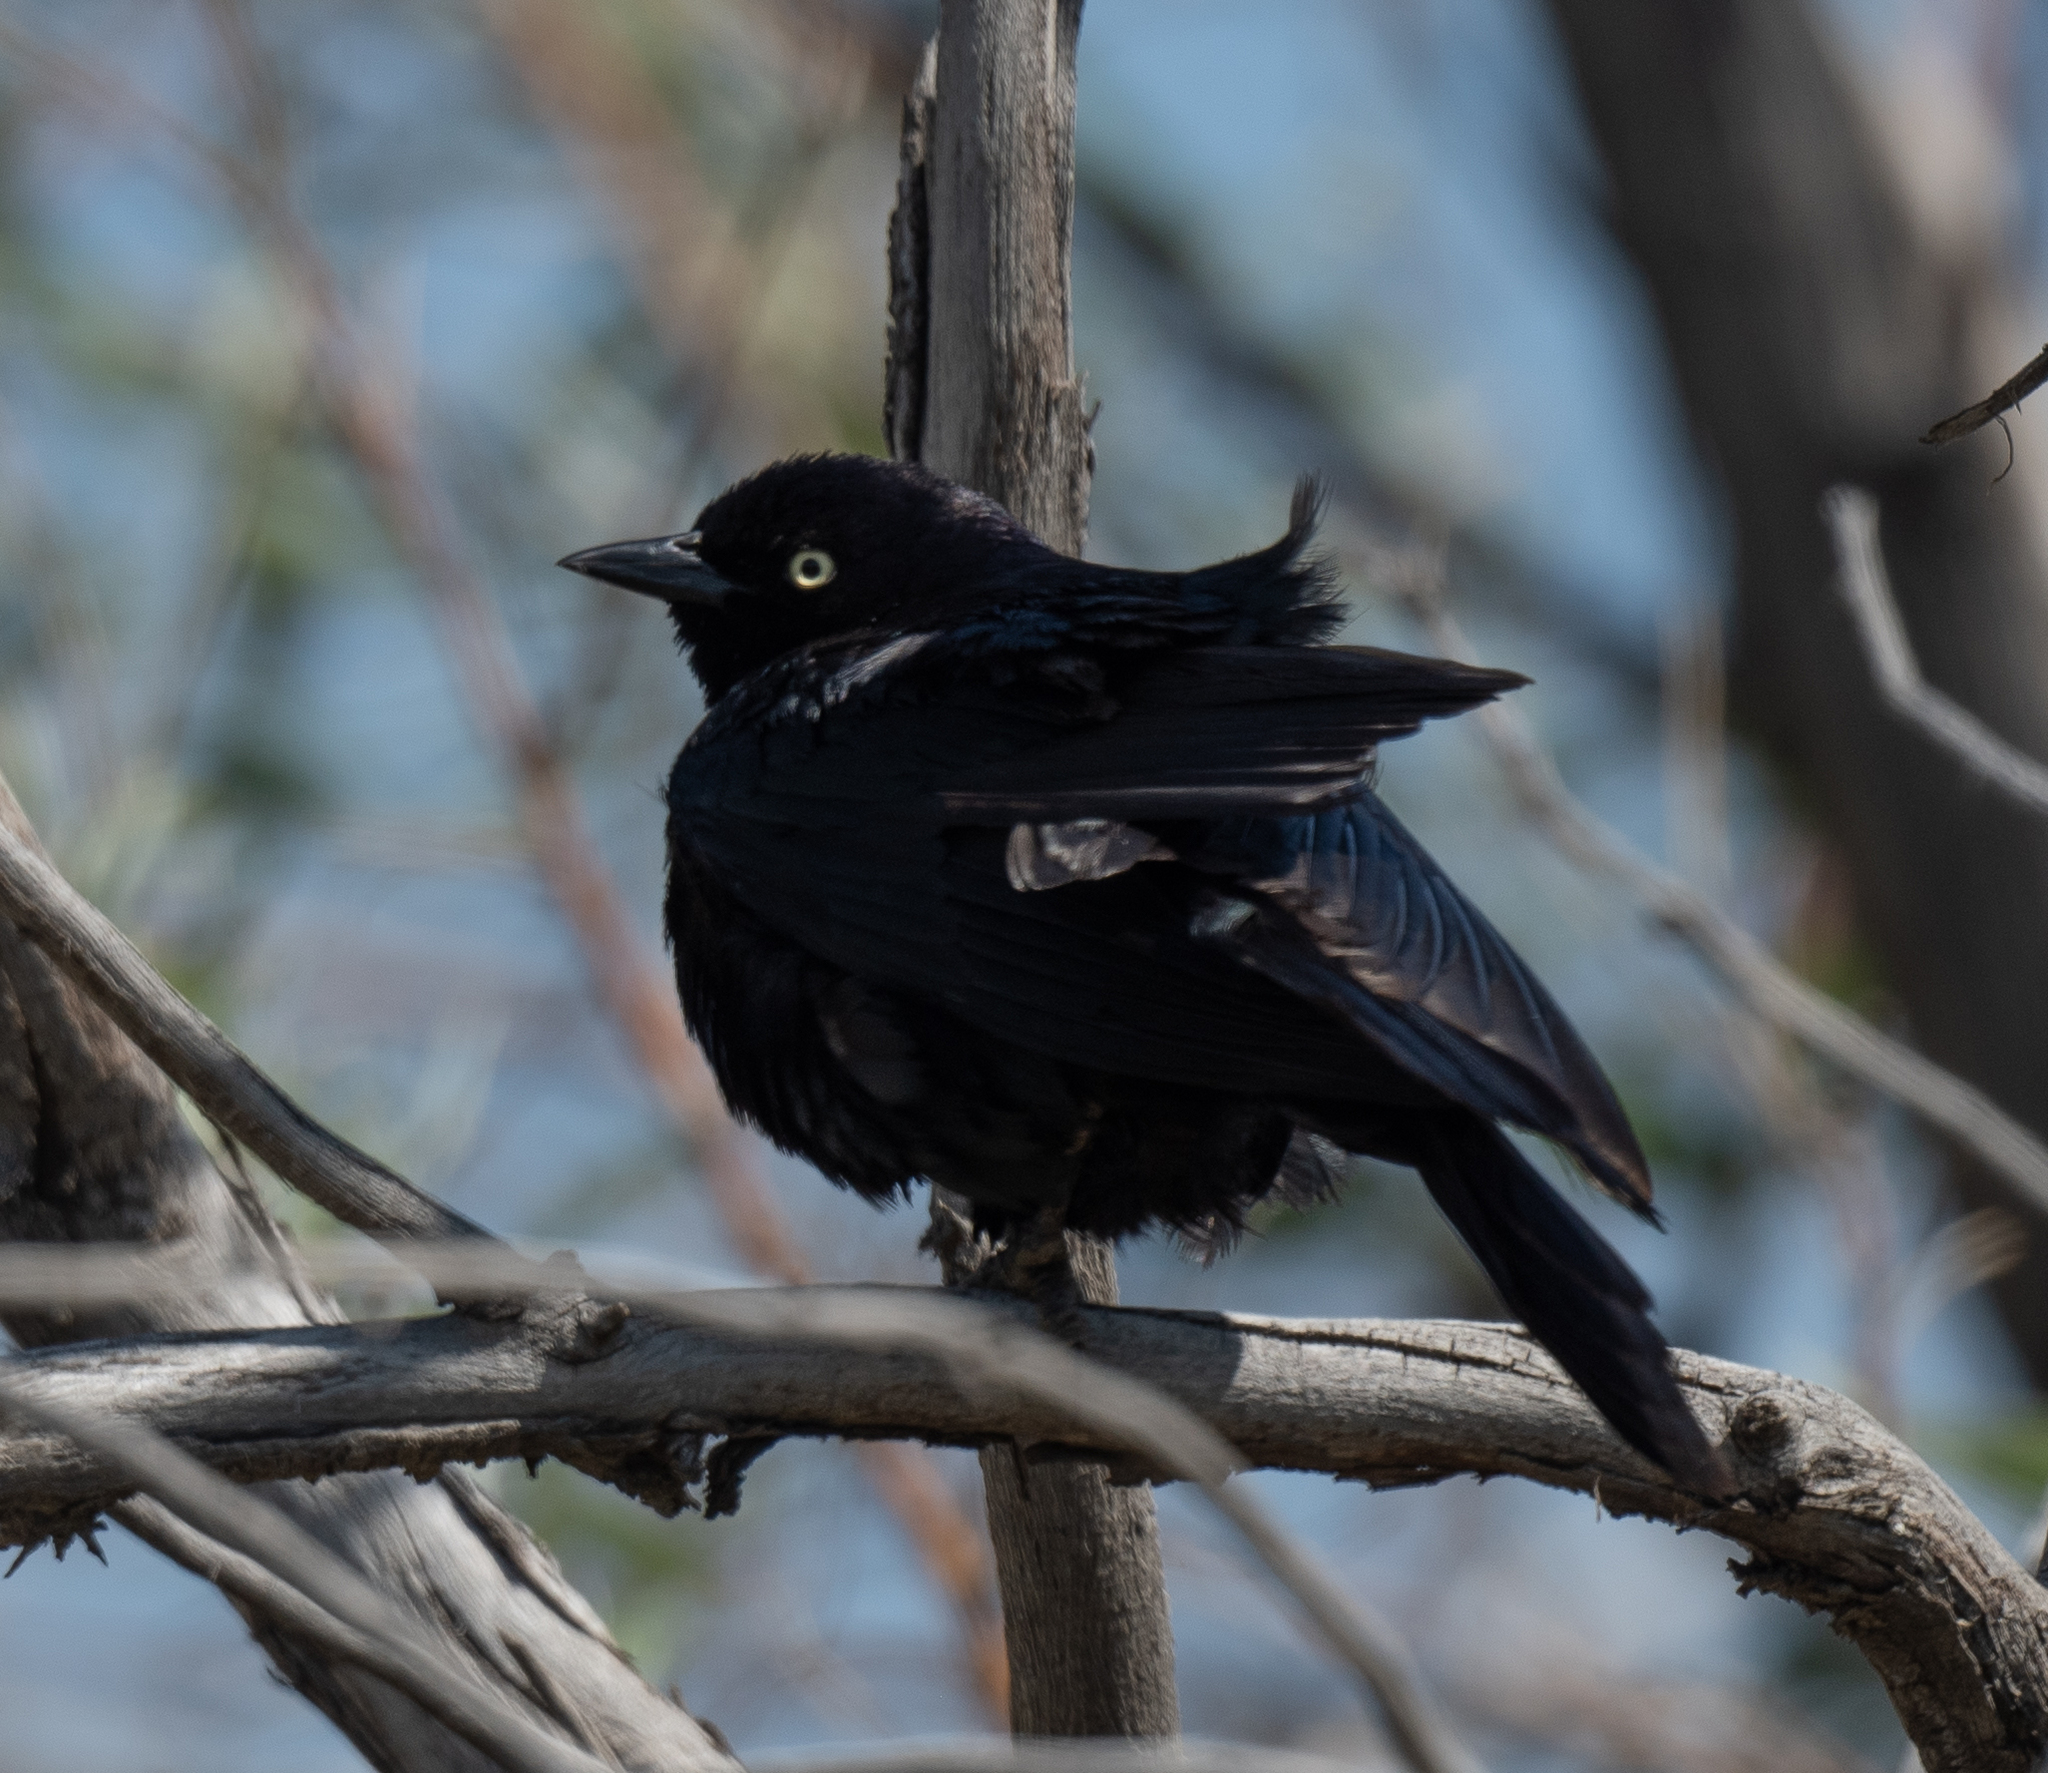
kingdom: Animalia
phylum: Chordata
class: Aves
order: Passeriformes
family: Icteridae
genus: Euphagus
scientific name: Euphagus cyanocephalus
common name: Brewer's blackbird
